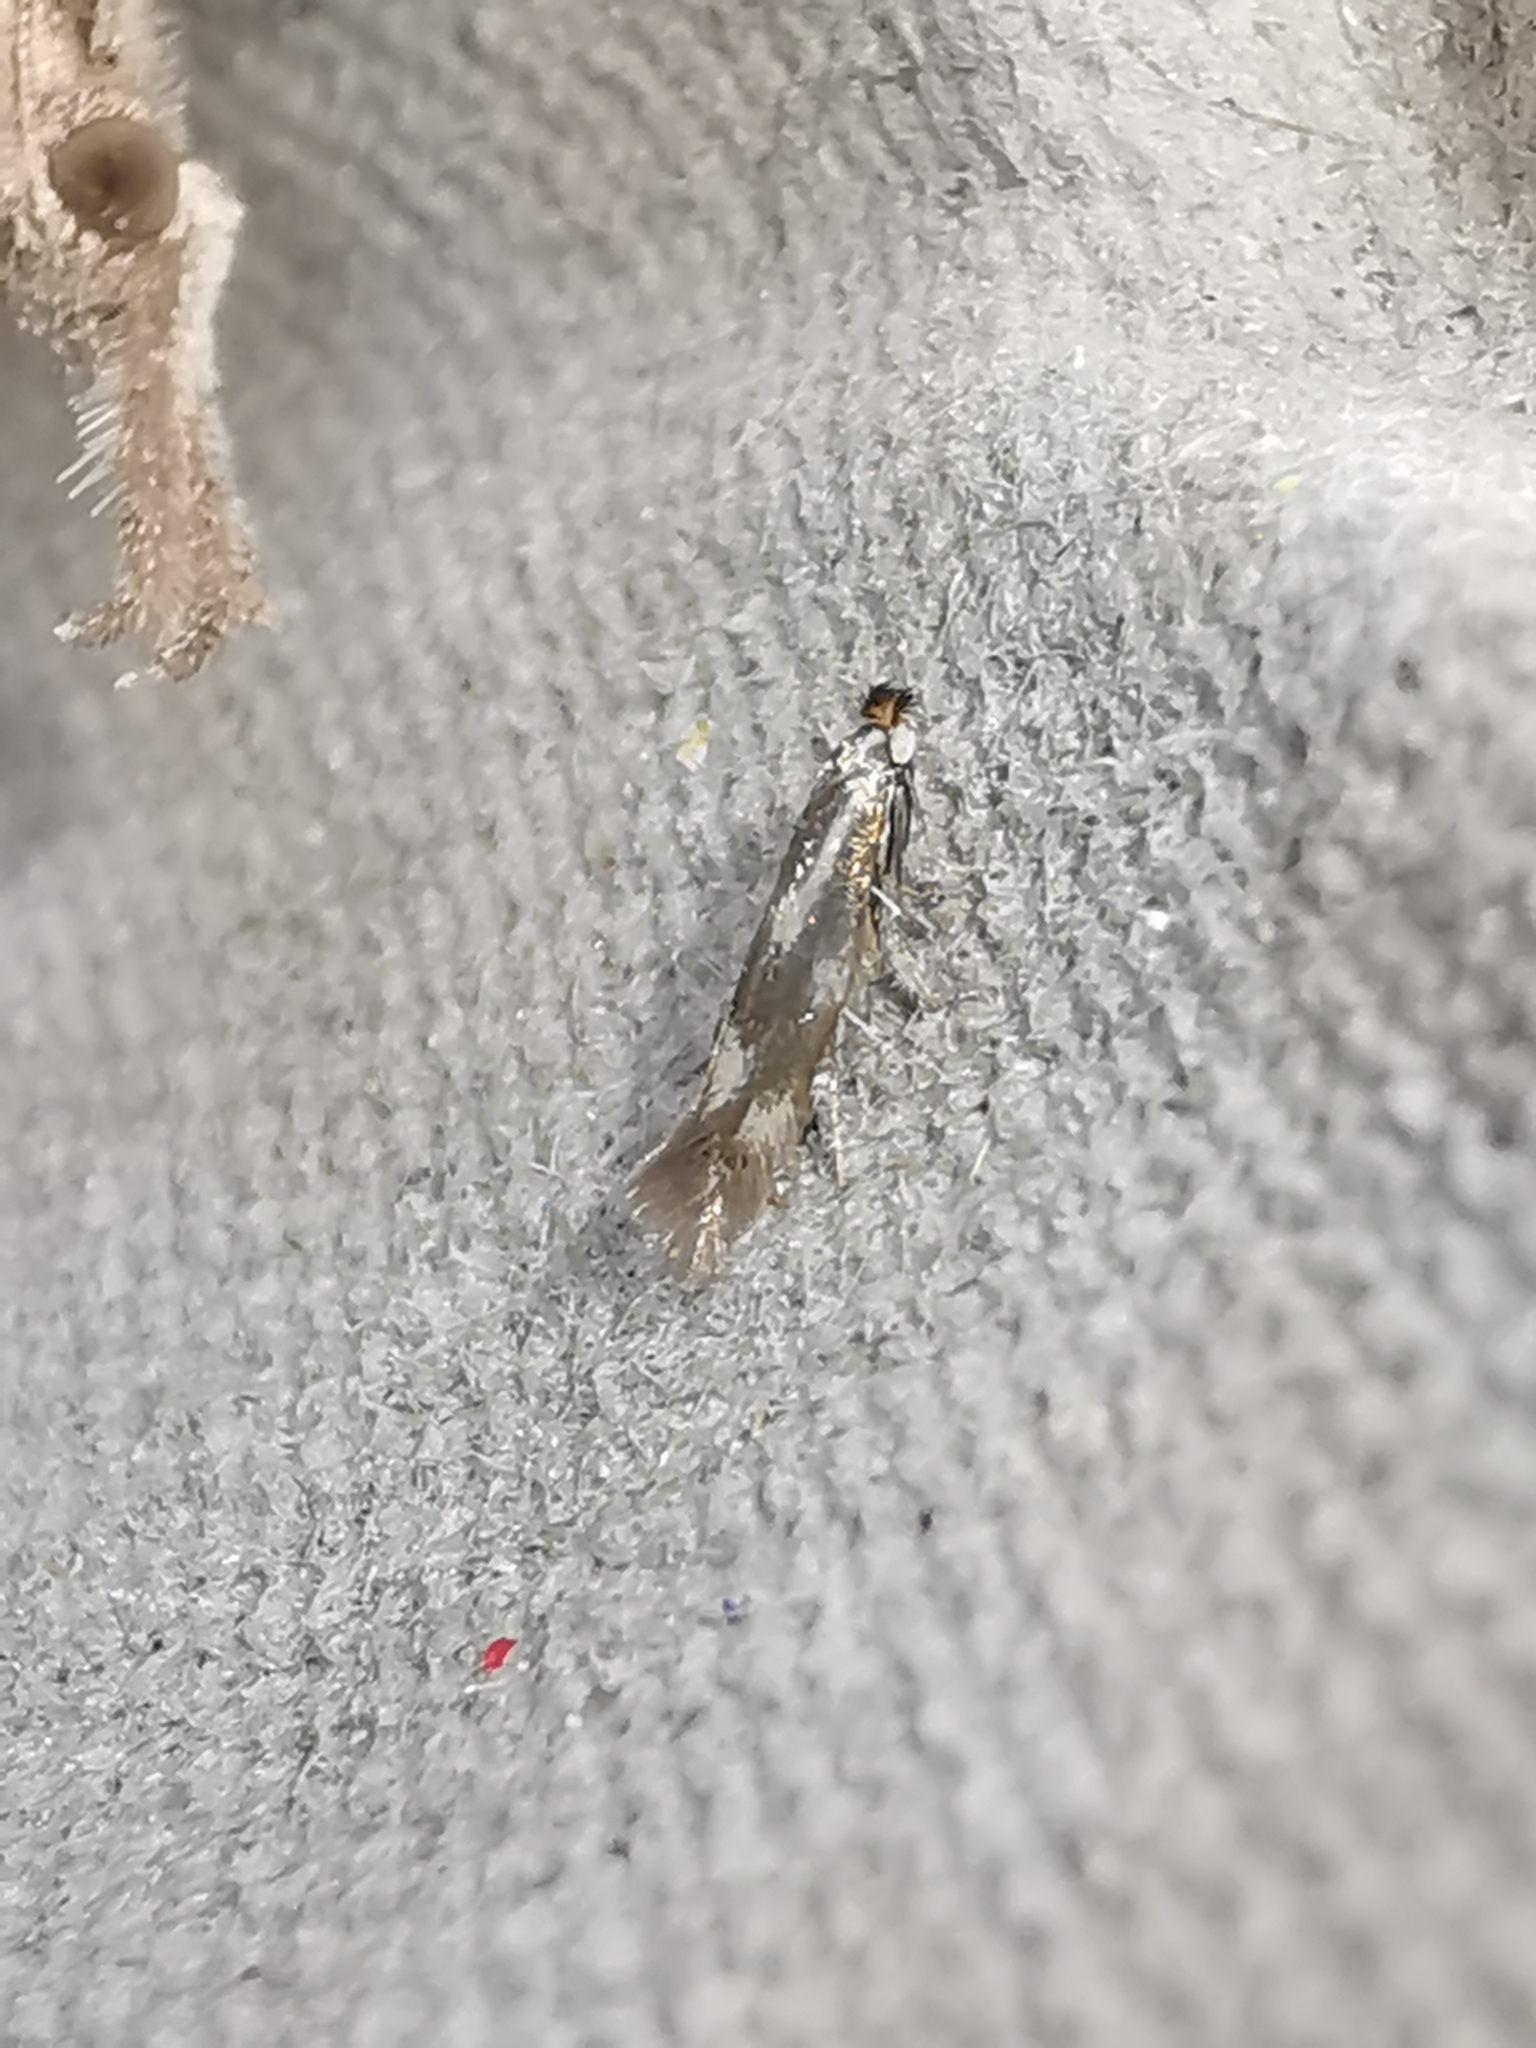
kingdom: Animalia
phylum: Arthropoda
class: Insecta
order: Lepidoptera
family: Bucculatricidae
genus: Bucculatrix
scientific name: Bucculatrix nigricomella
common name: Daisy bent-wing
